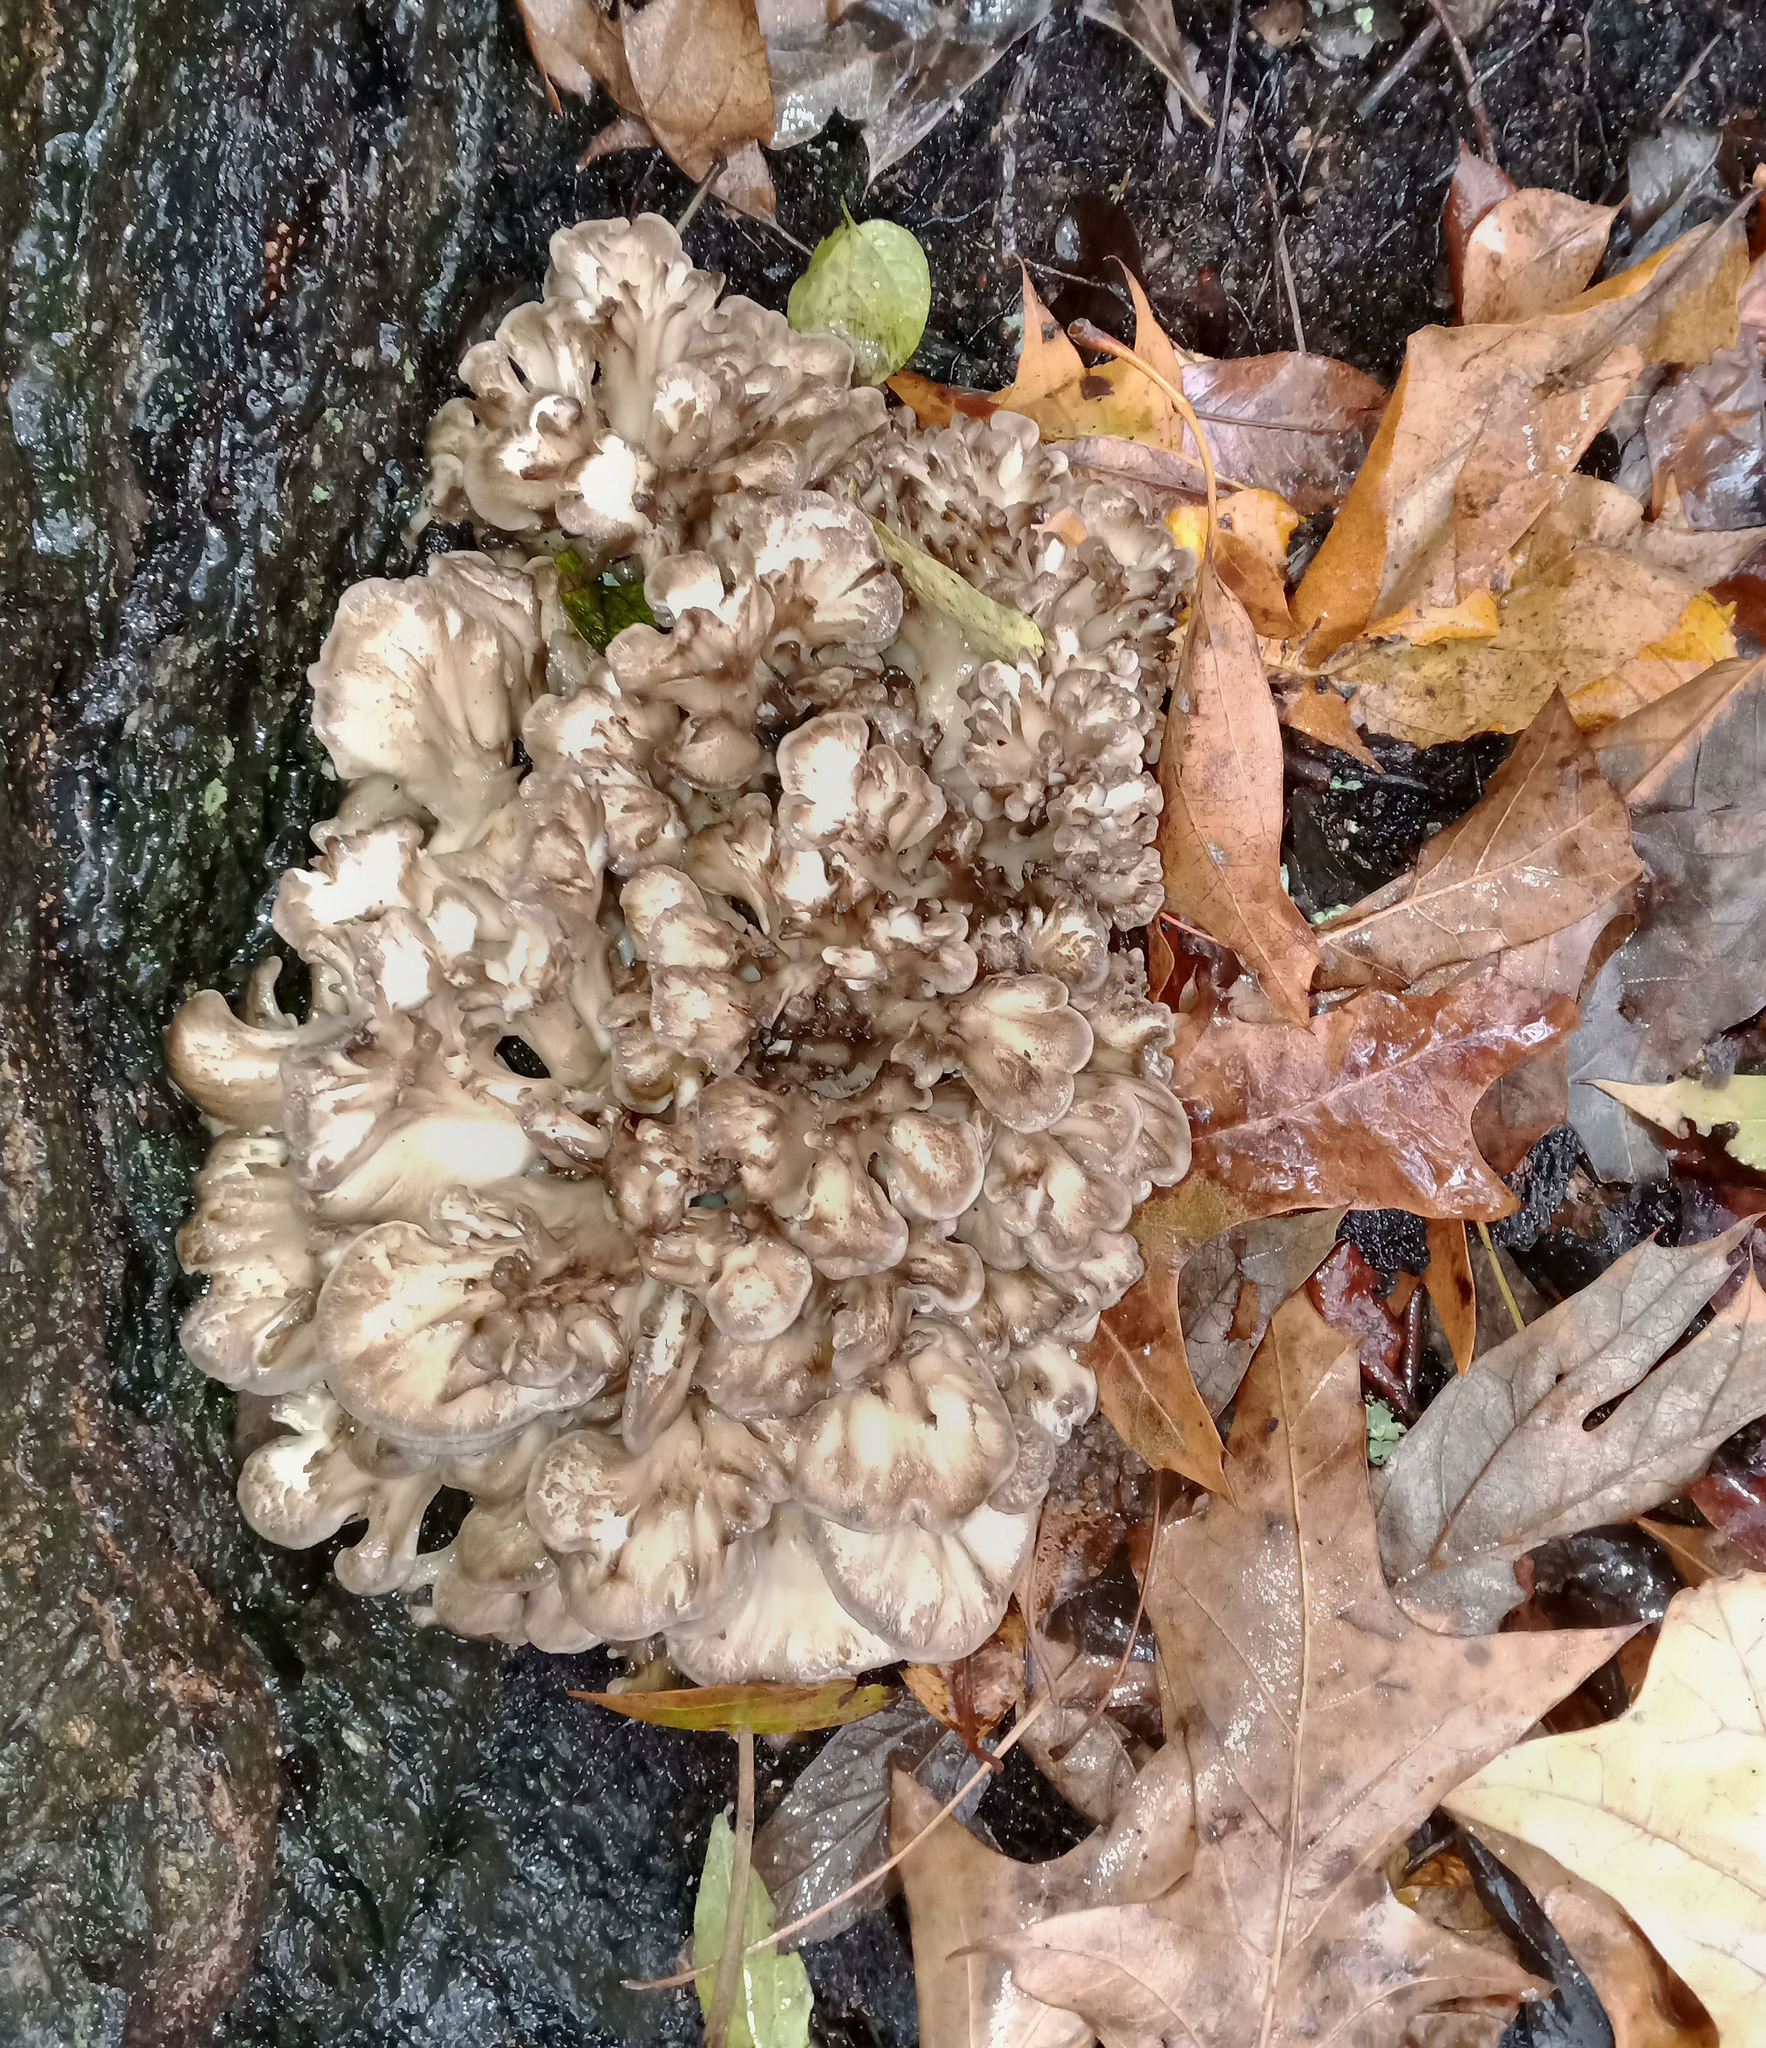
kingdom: Fungi
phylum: Basidiomycota
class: Agaricomycetes
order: Polyporales
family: Grifolaceae
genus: Grifola
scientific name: Grifola frondosa
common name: Hen of the woods
